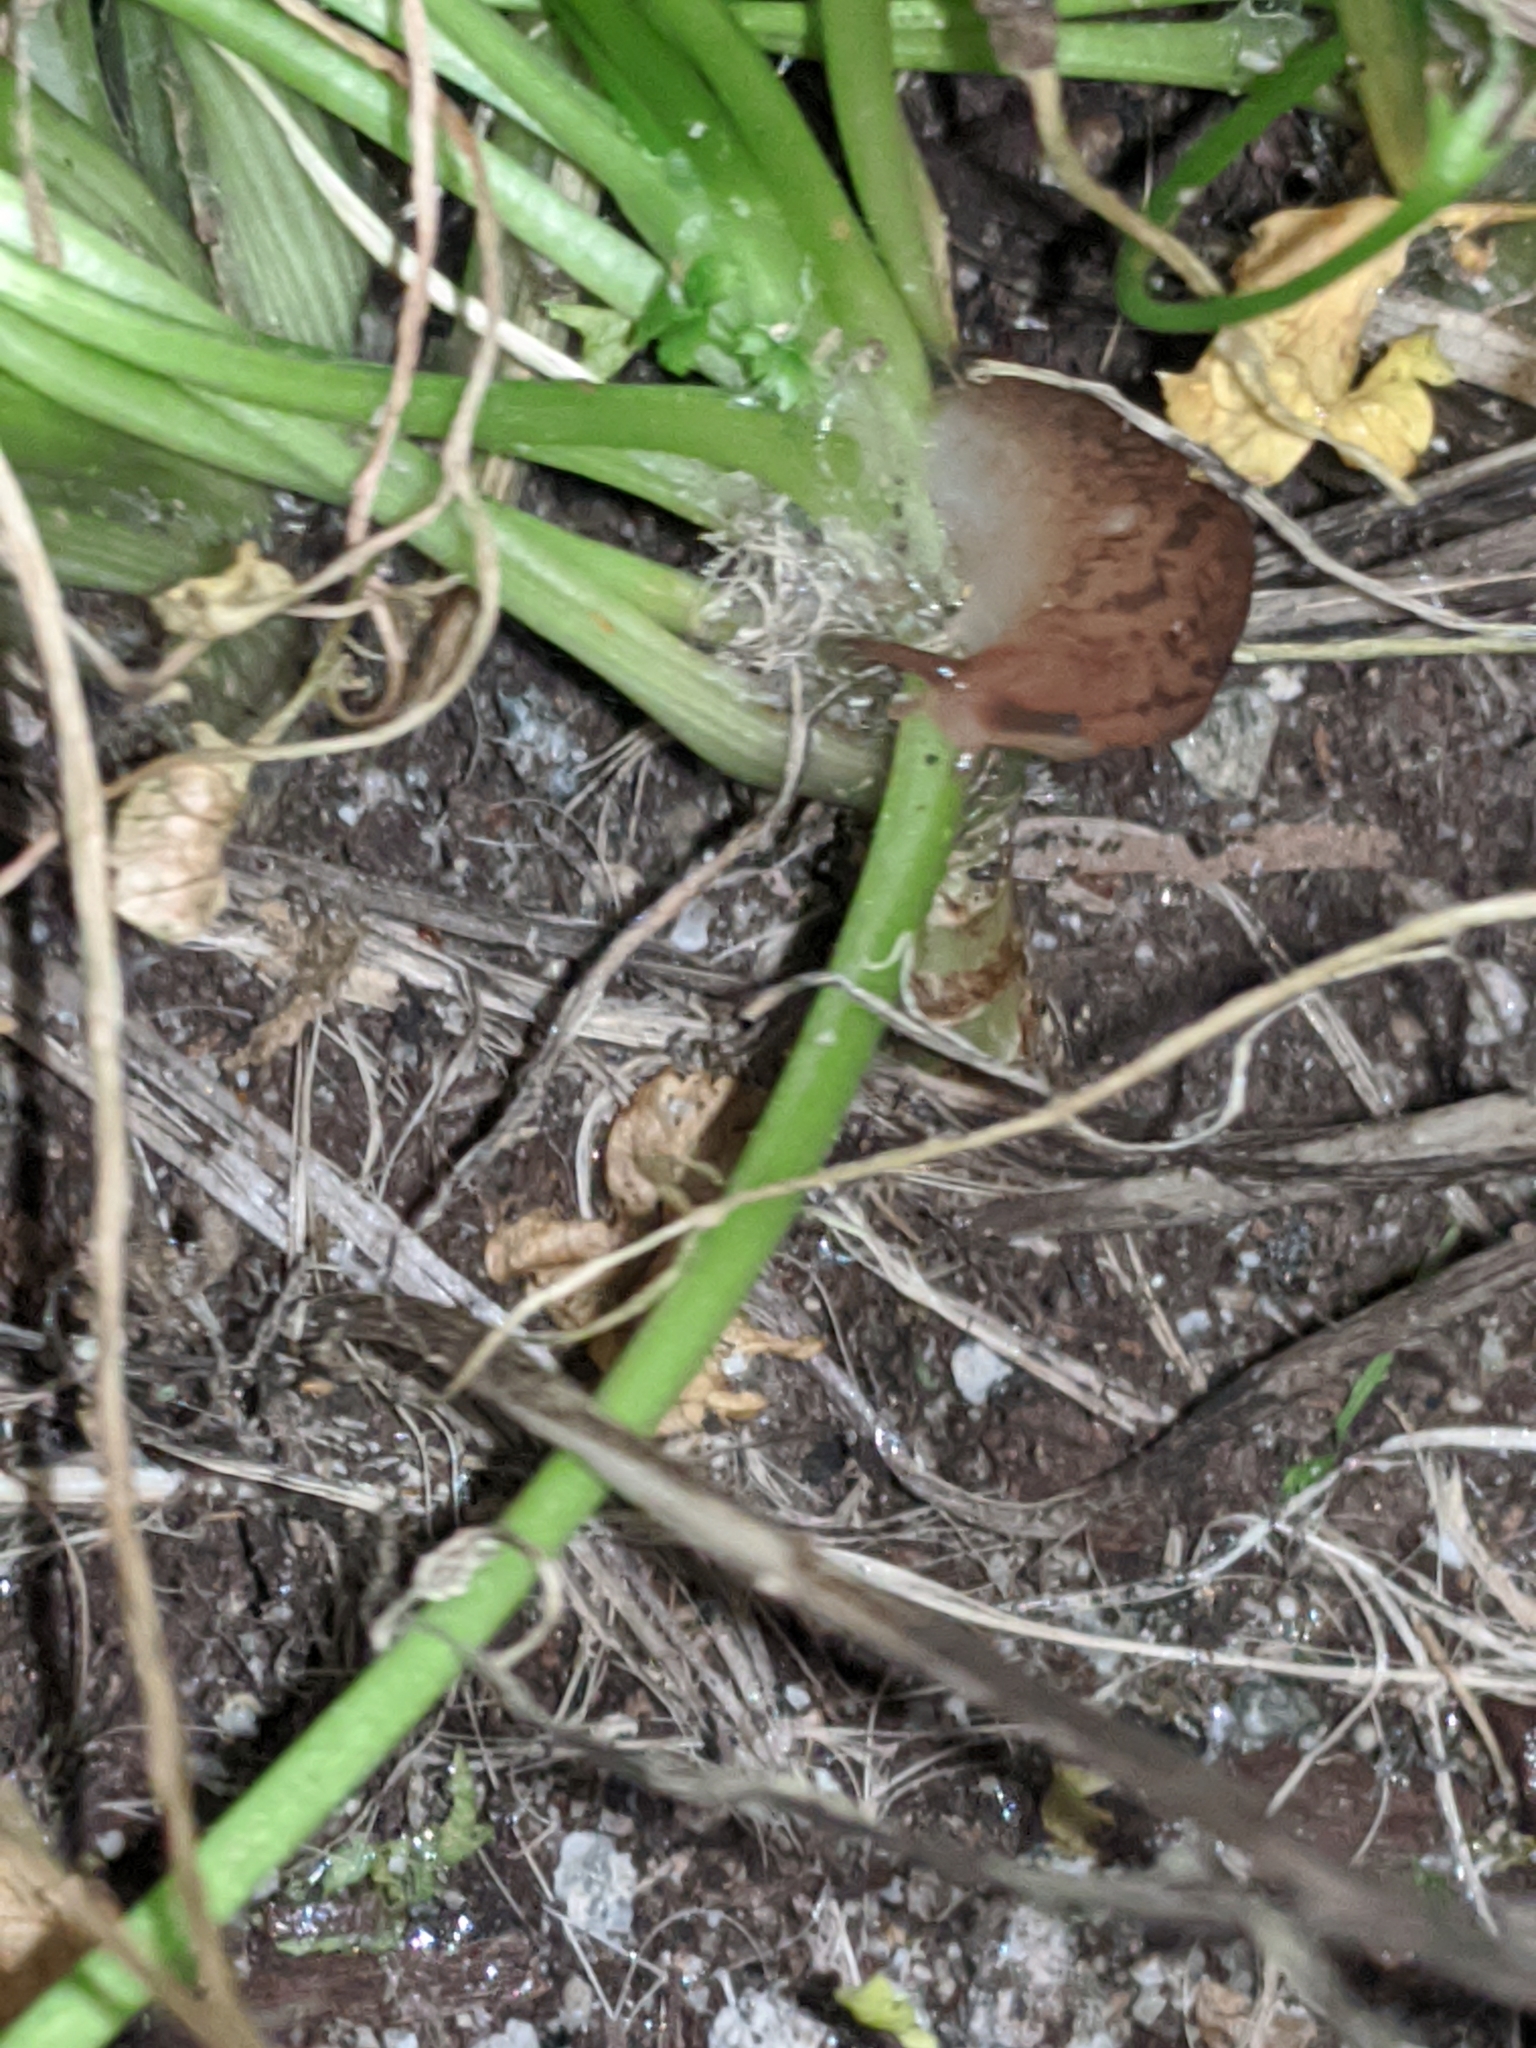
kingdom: Animalia
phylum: Mollusca
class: Gastropoda
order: Stylommatophora
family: Limacidae
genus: Ambigolimax
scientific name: Ambigolimax
